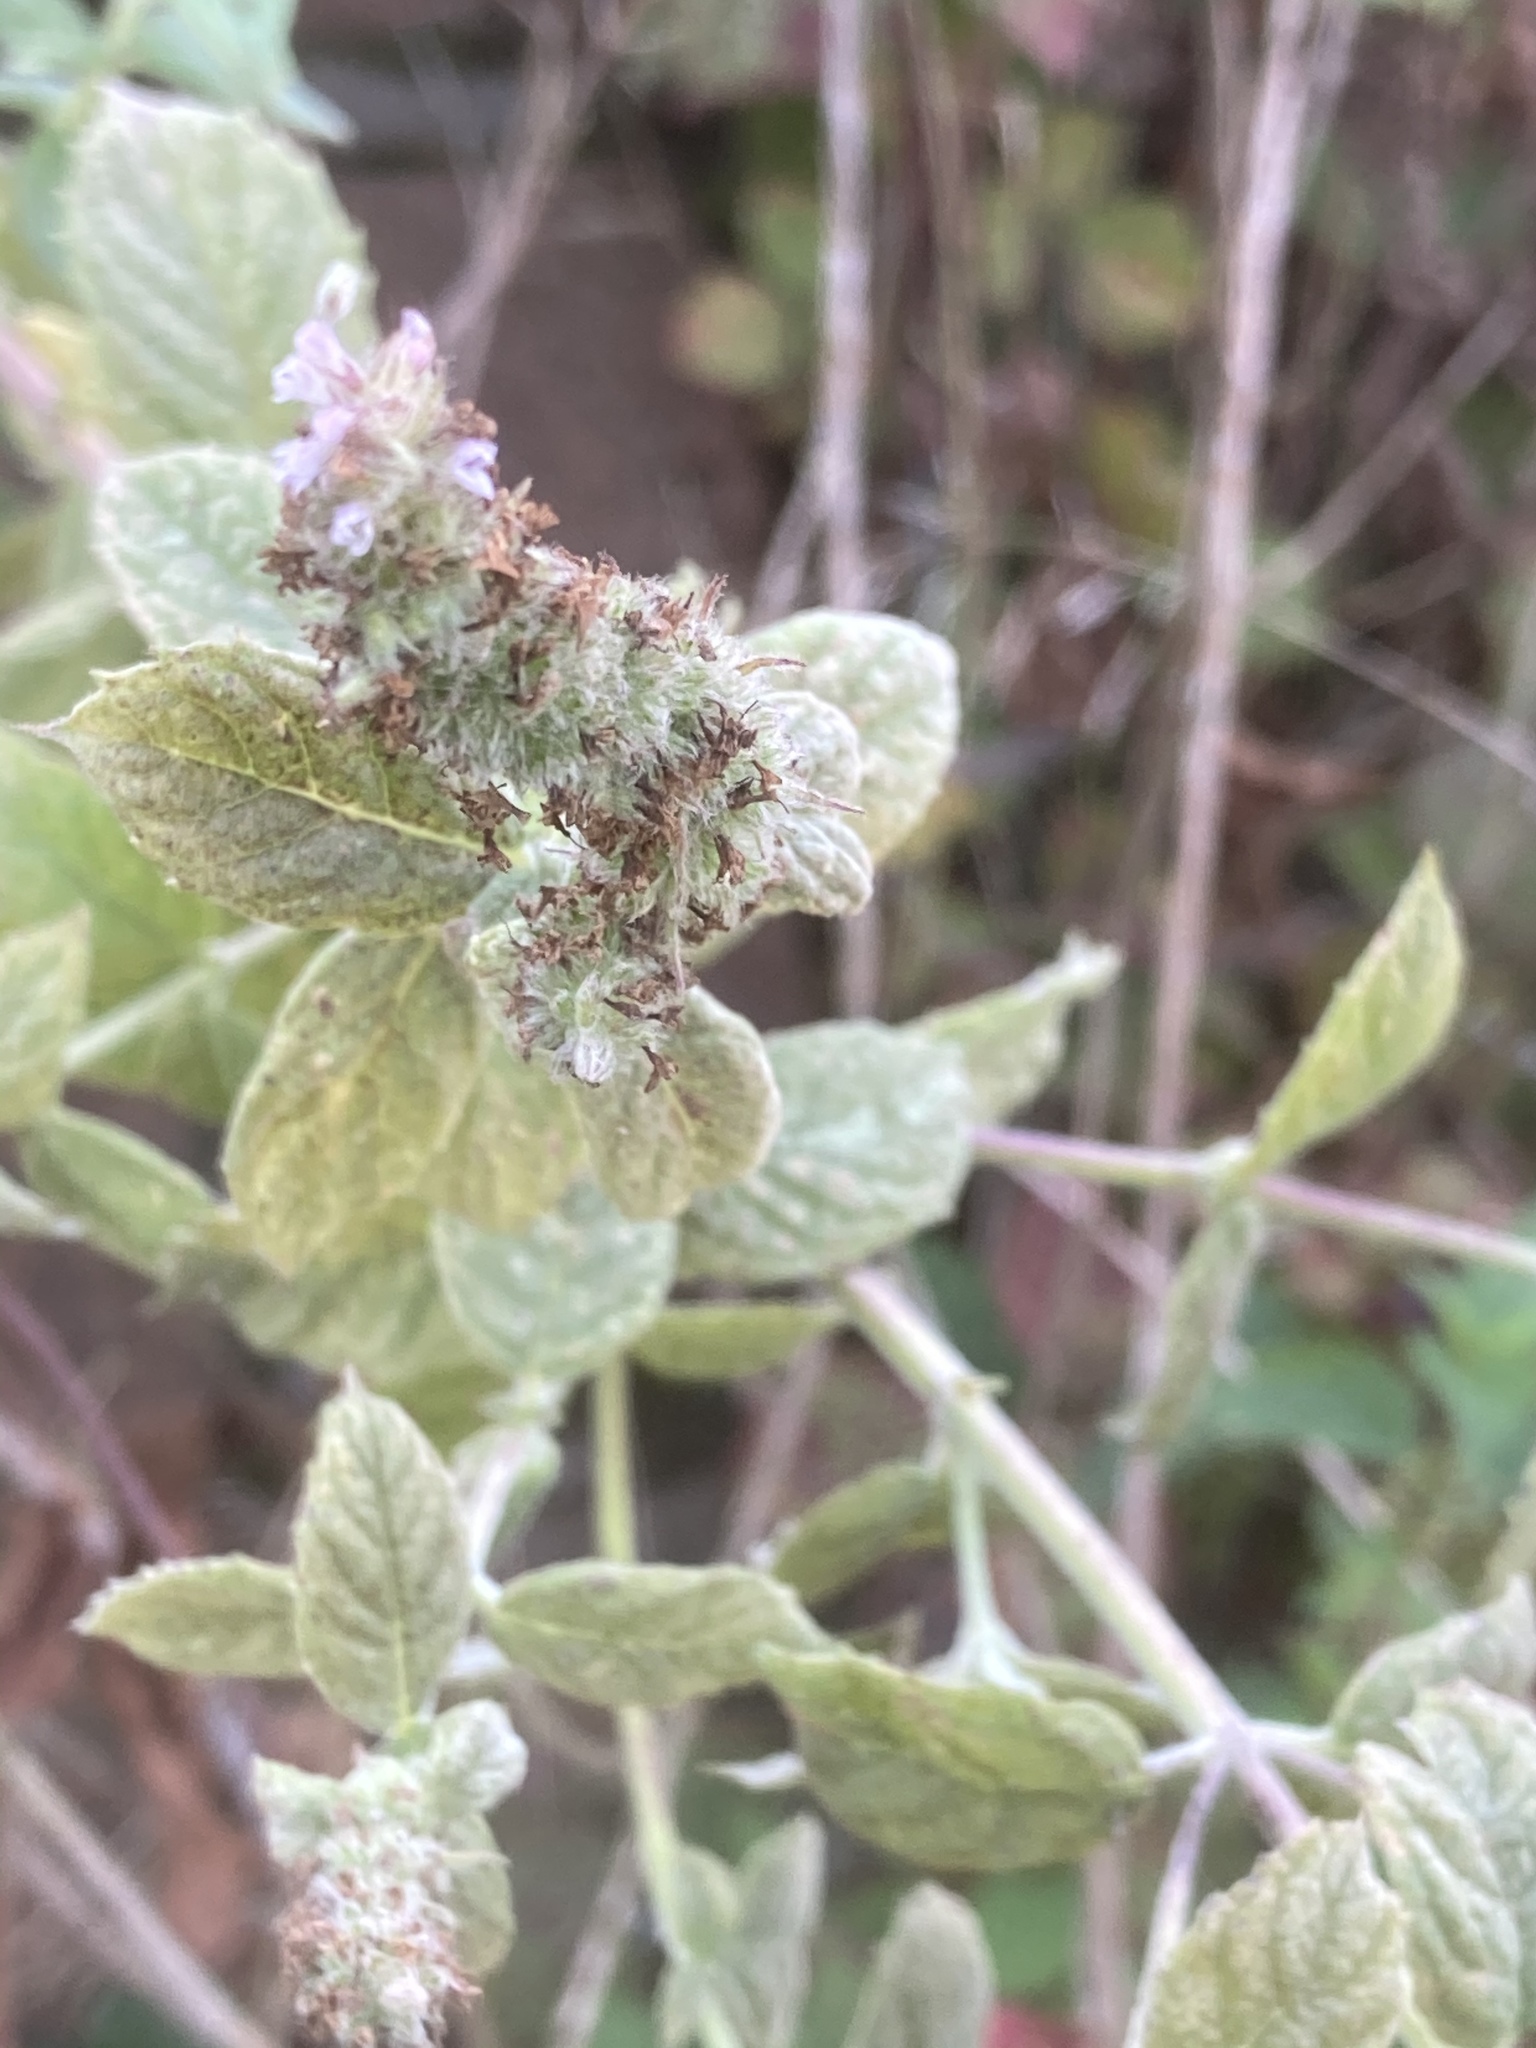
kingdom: Plantae
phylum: Tracheophyta
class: Magnoliopsida
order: Lamiales
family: Lamiaceae
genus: Mentha
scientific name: Mentha rotundifolia
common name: Bigleaf mint
